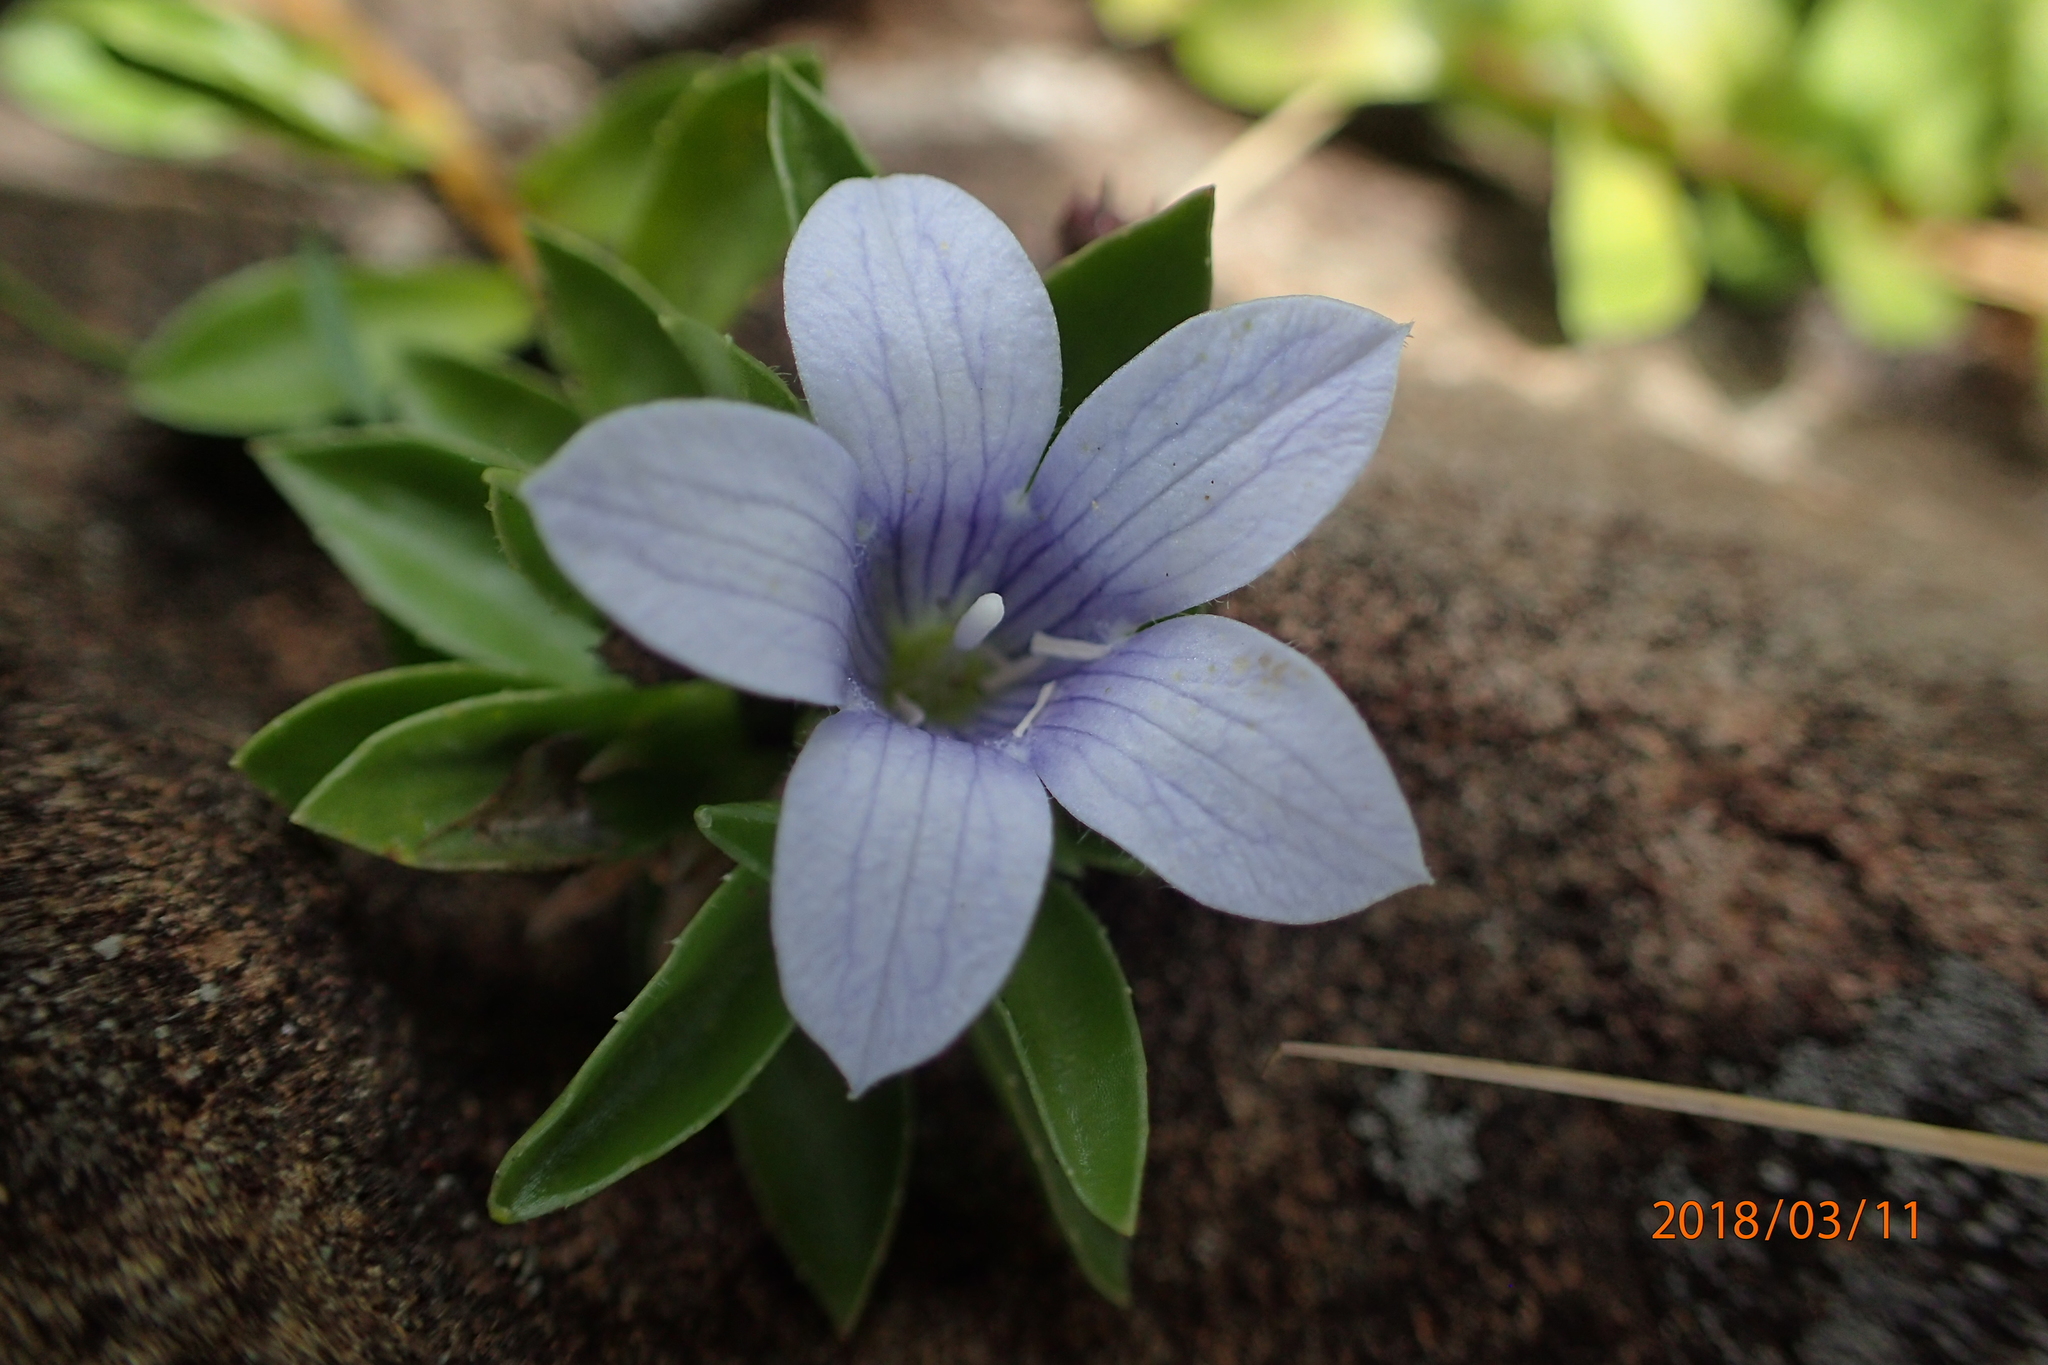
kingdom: Plantae
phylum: Tracheophyta
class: Magnoliopsida
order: Asterales
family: Campanulaceae
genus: Craterocapsa
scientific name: Craterocapsa tarsodes
